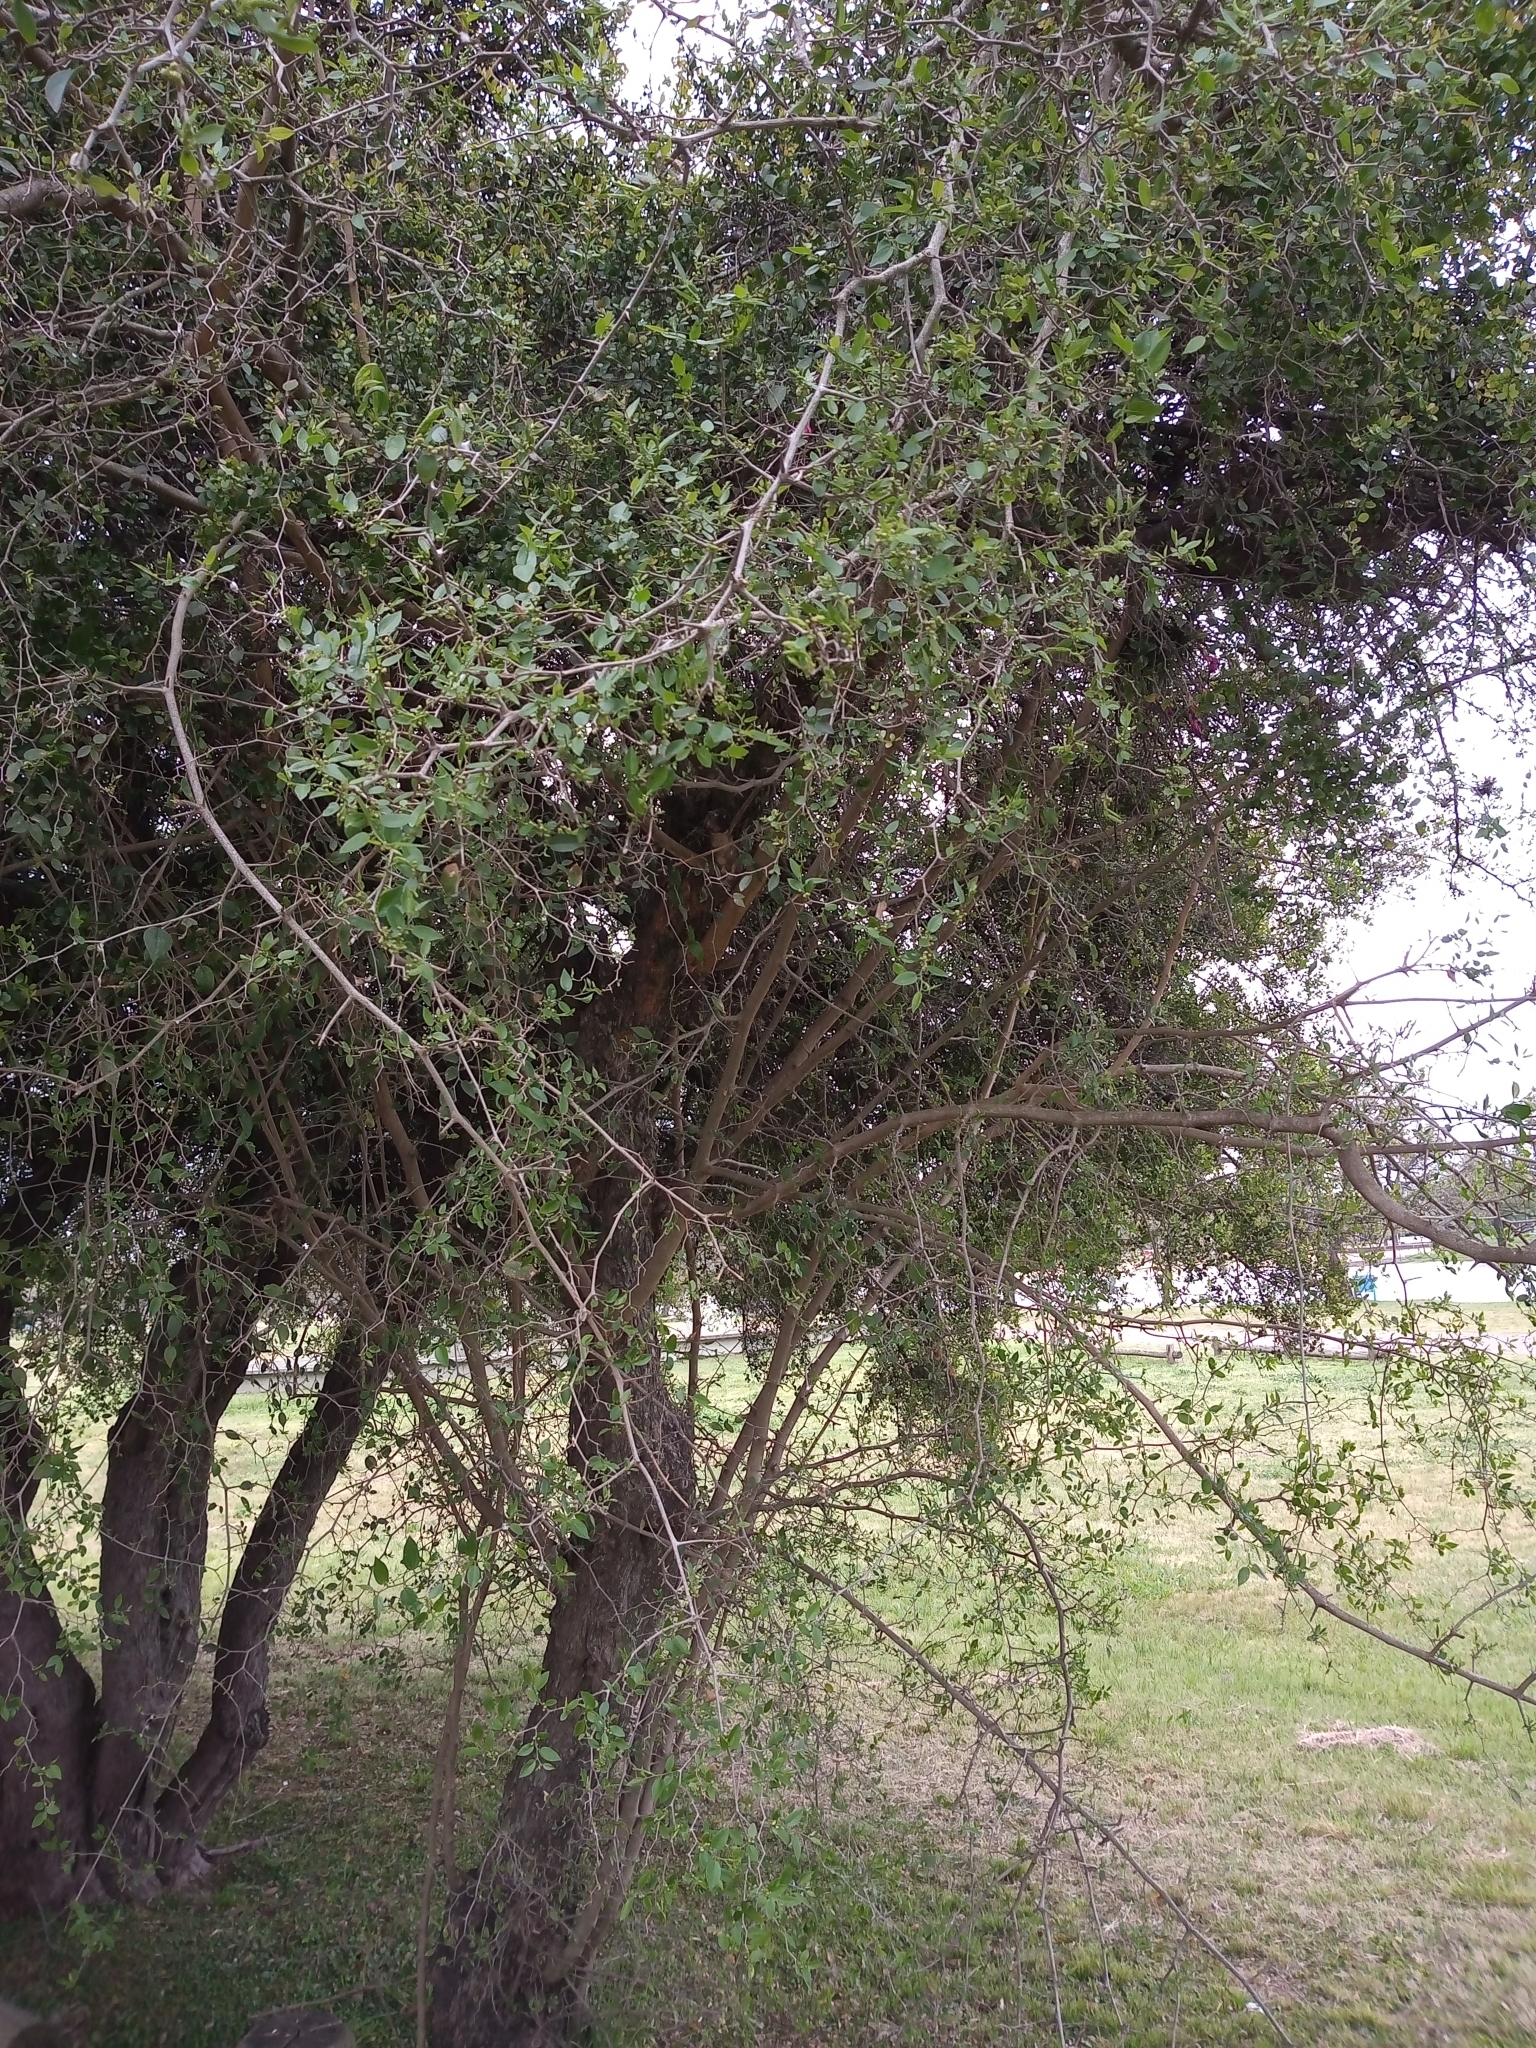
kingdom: Plantae
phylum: Tracheophyta
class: Magnoliopsida
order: Rosales
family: Cannabaceae
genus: Celtis
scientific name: Celtis tala
